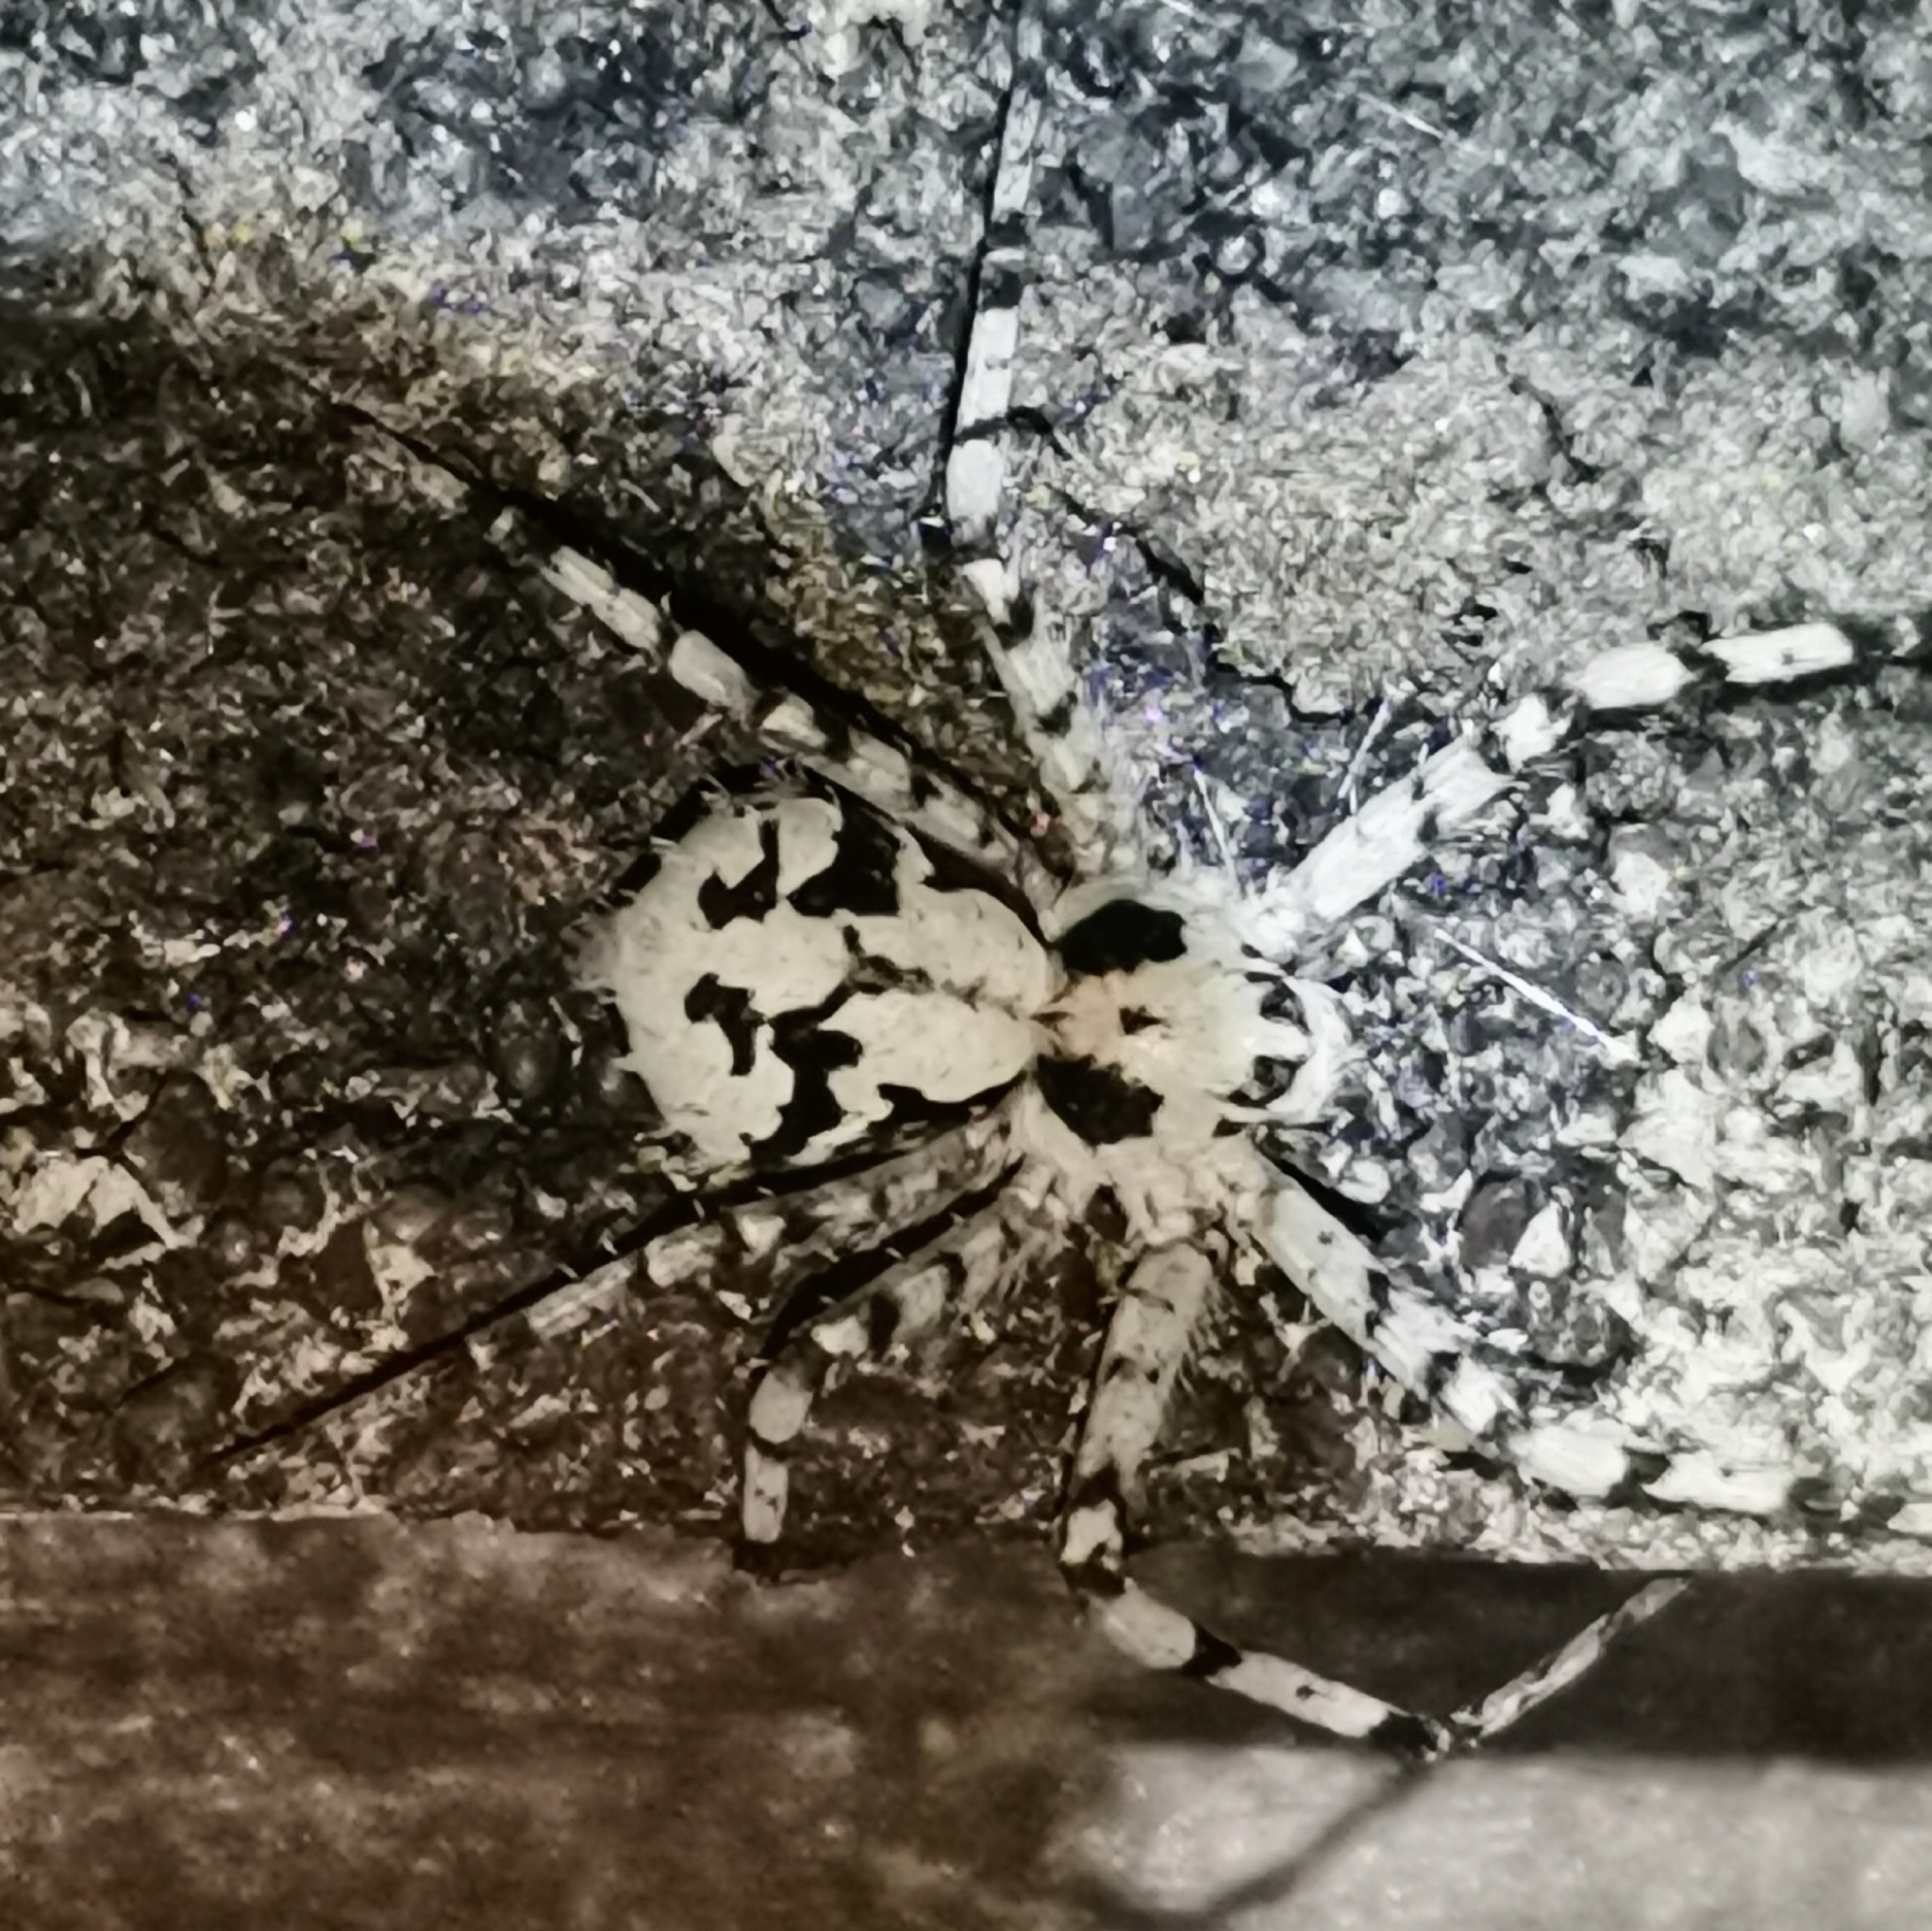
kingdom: Animalia
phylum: Arthropoda
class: Arachnida
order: Araneae
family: Philodromidae
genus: Philodromus
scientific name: Philodromus margaritatus
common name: Lichen running-spider
